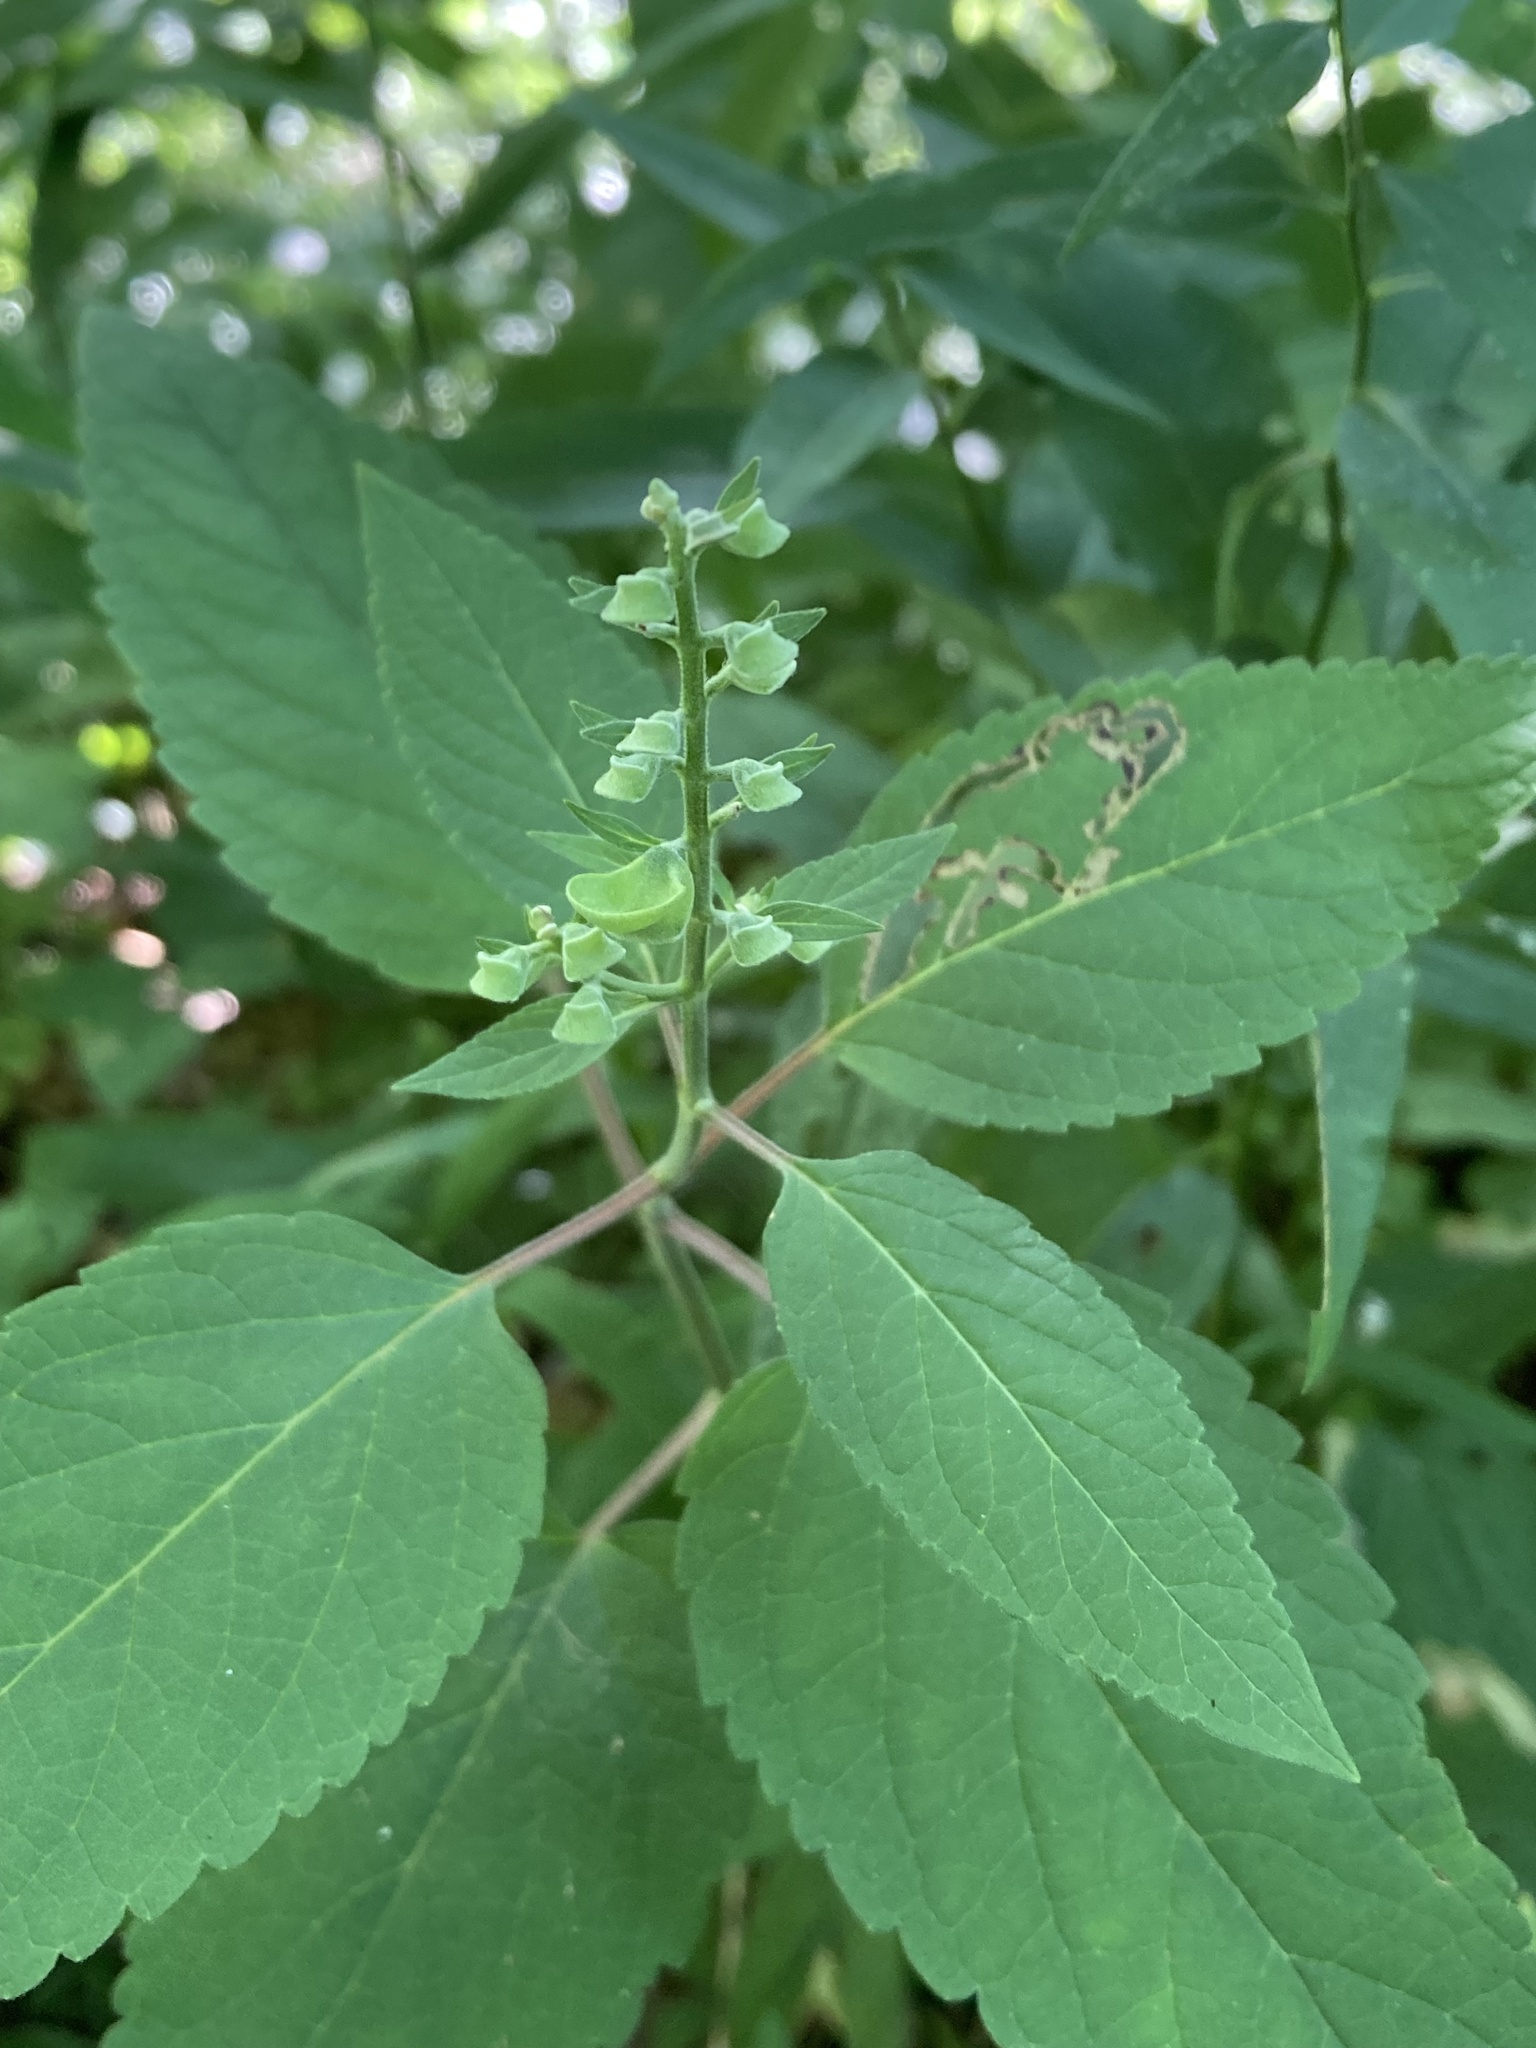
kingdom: Plantae
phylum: Tracheophyta
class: Magnoliopsida
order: Lamiales
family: Lamiaceae
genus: Scutellaria
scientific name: Scutellaria incana
